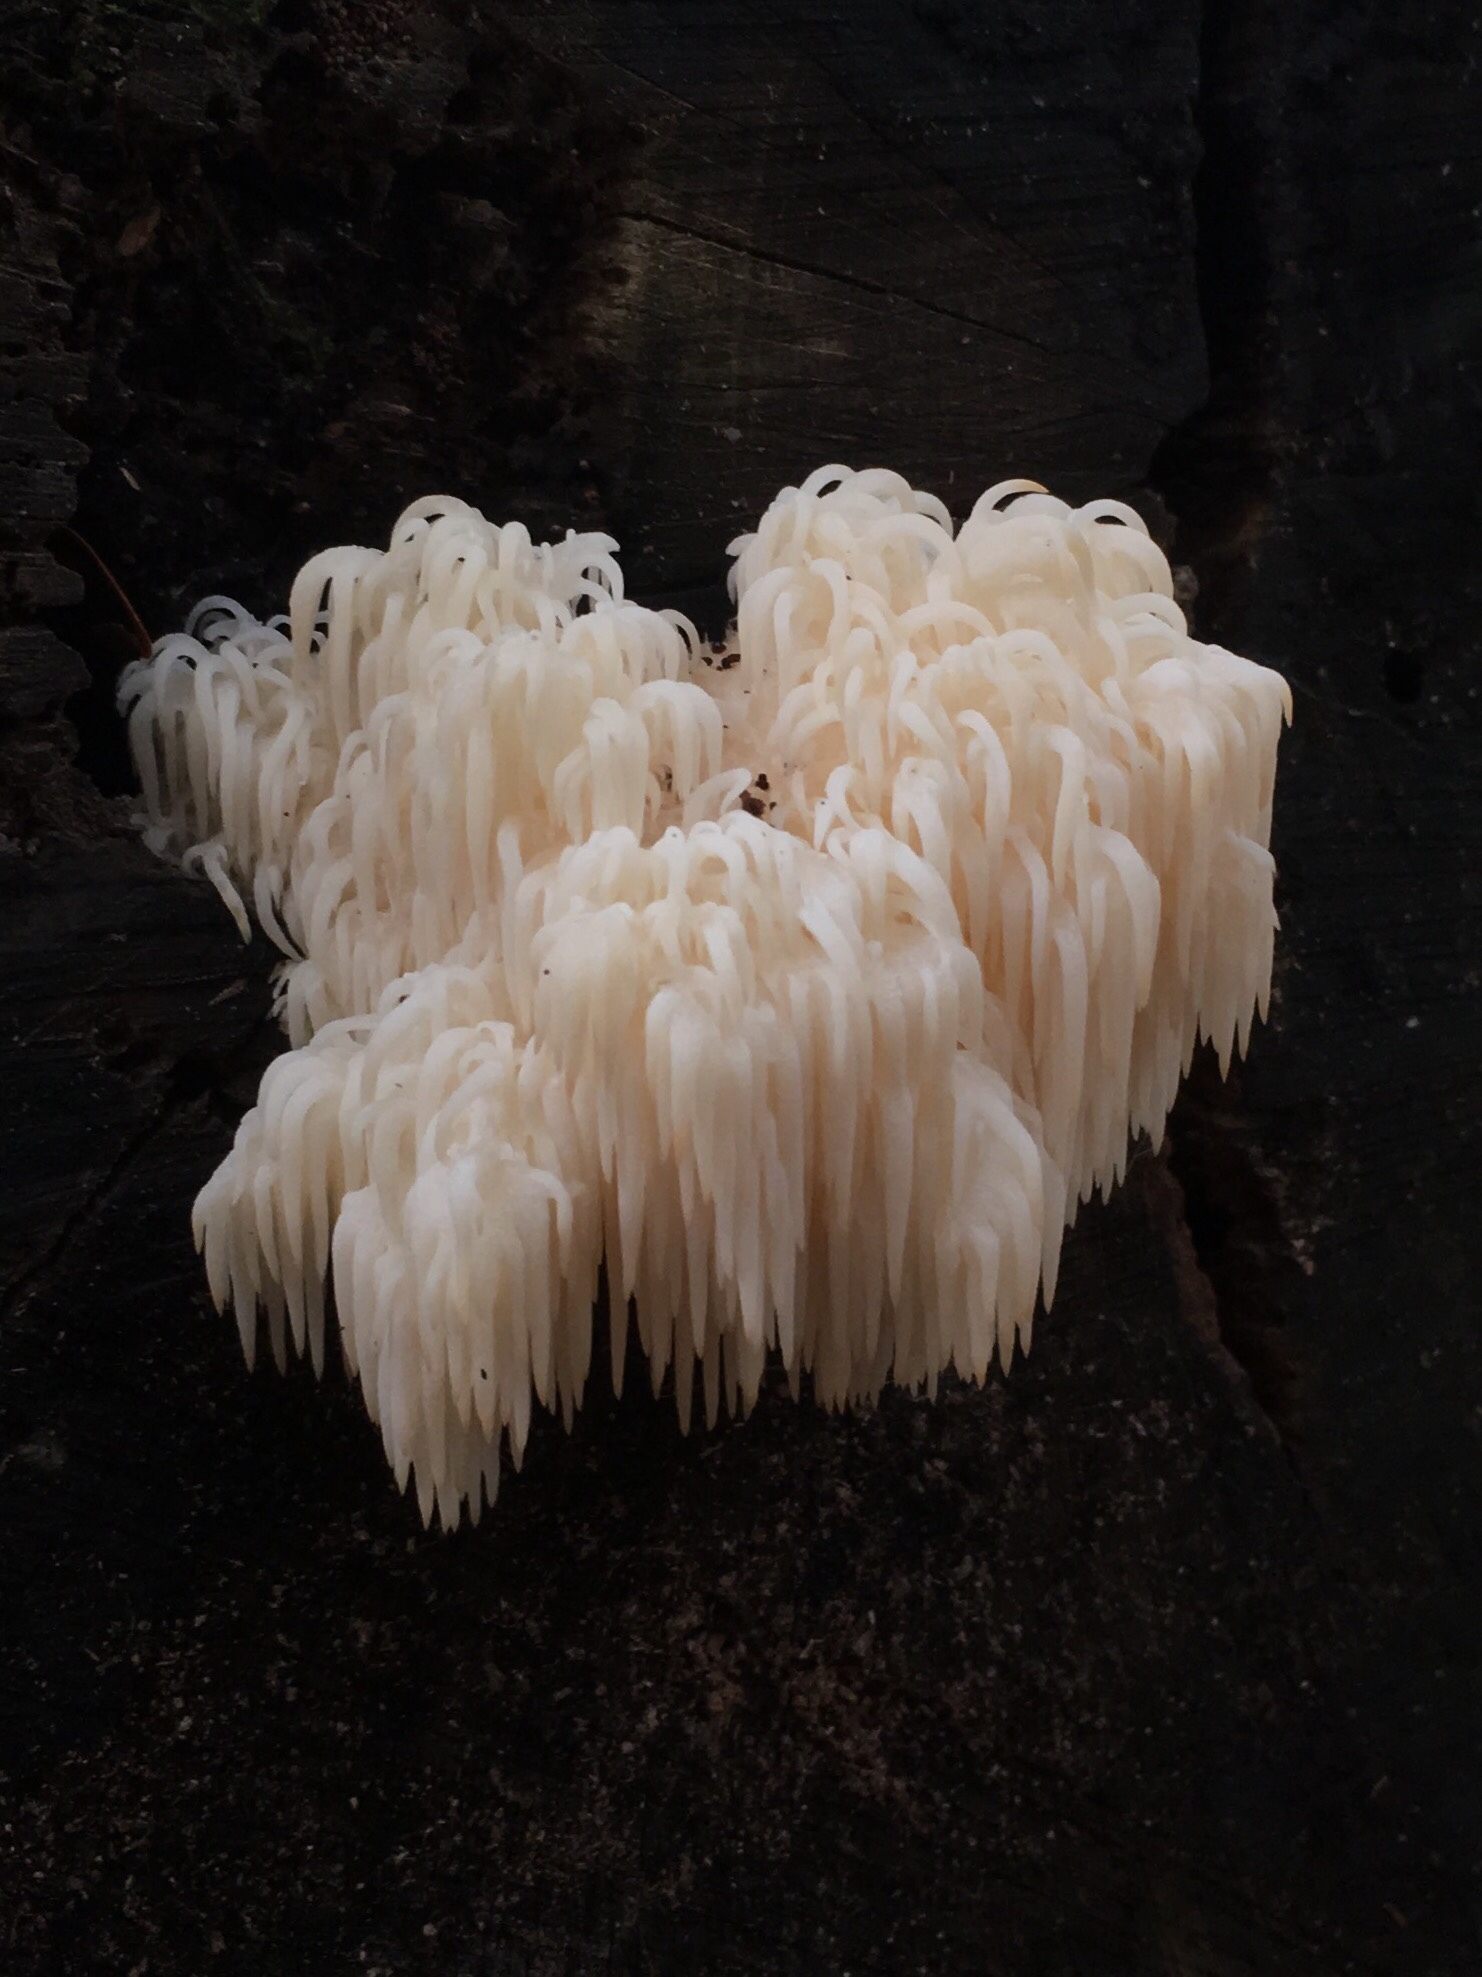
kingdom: Fungi
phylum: Basidiomycota
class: Agaricomycetes
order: Russulales
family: Hericiaceae
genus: Hericium
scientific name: Hericium americanum
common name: Bear's head tooth
